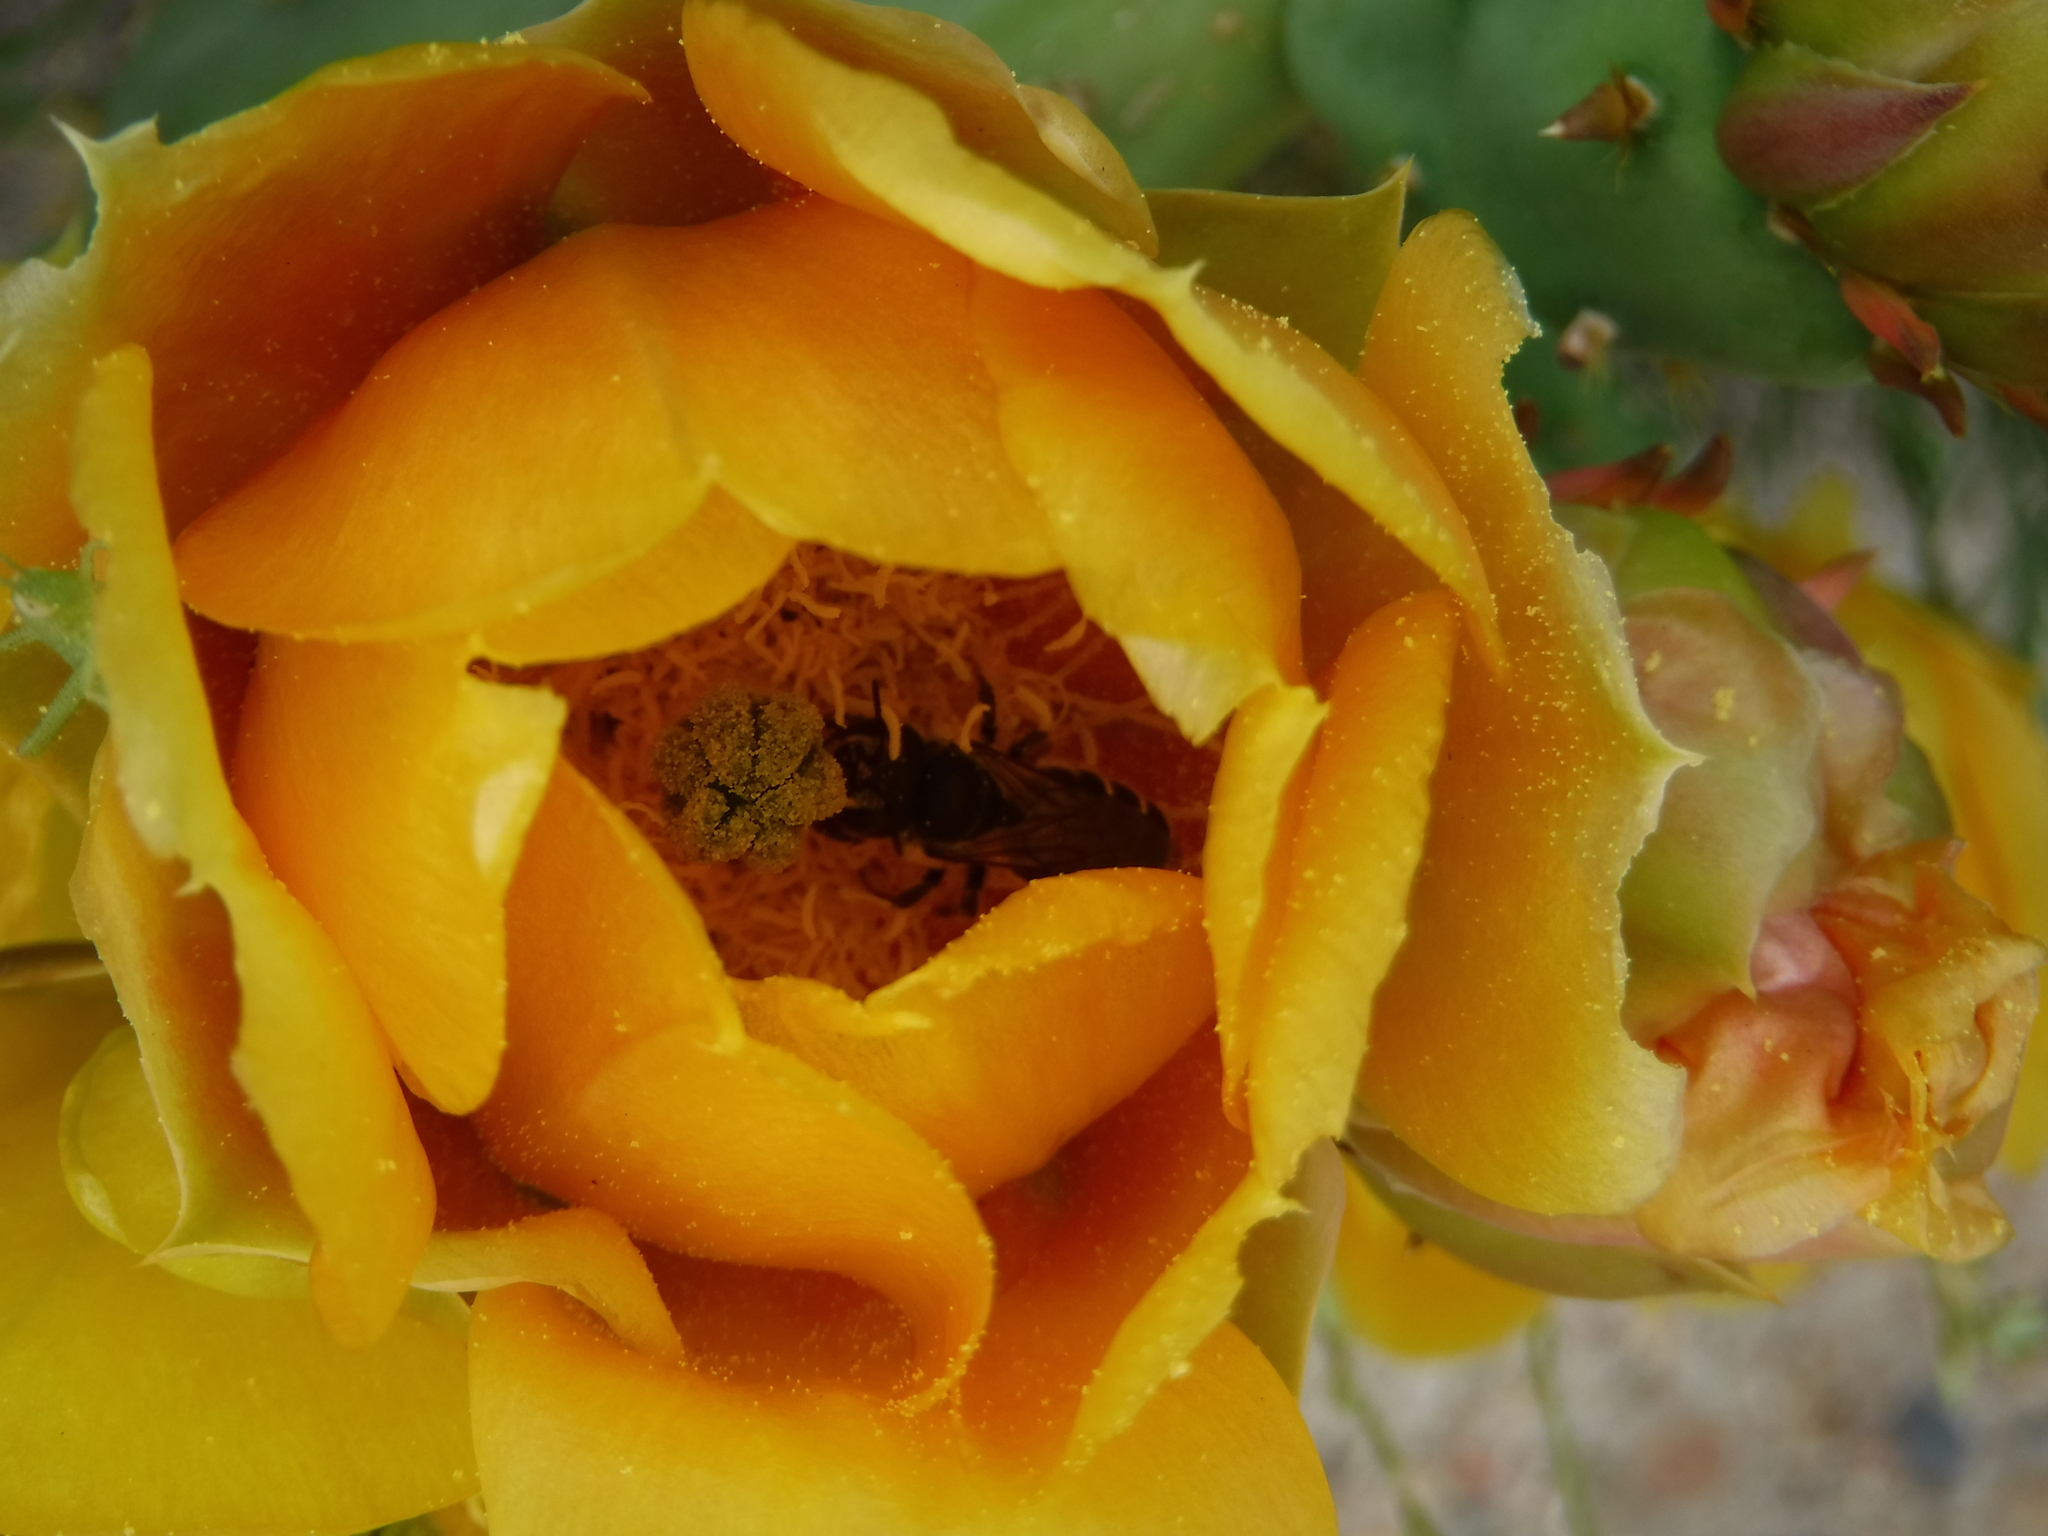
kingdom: Animalia
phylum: Arthropoda
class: Insecta
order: Hymenoptera
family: Megachilidae
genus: Lithurgopsis
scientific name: Lithurgopsis apicalis
